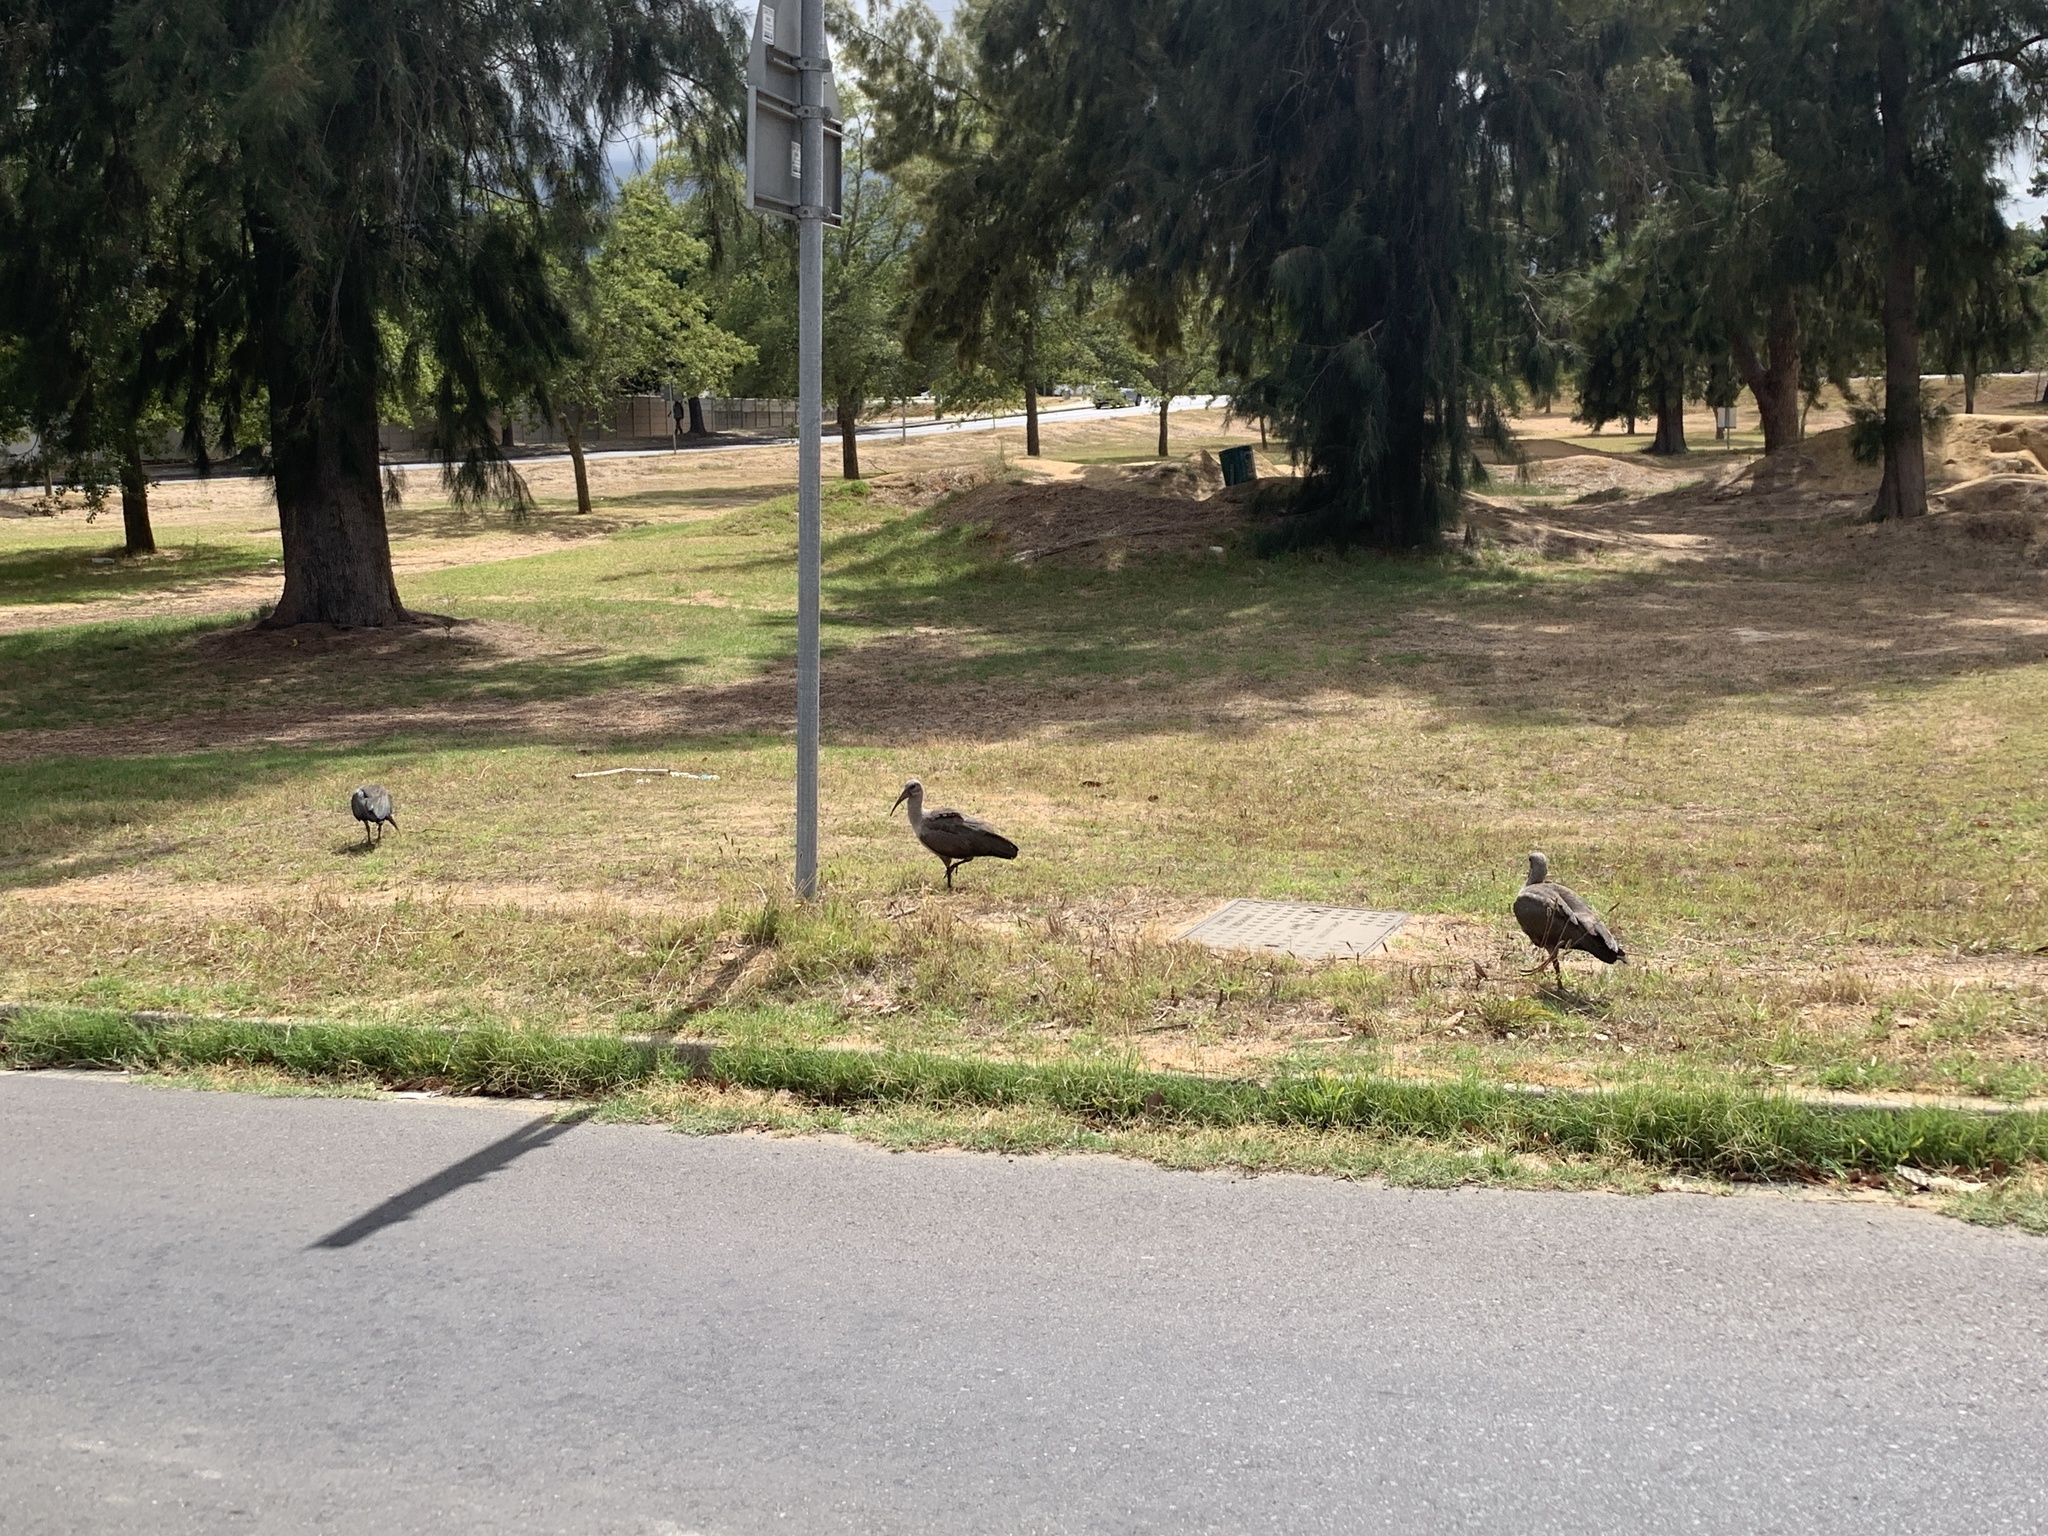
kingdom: Animalia
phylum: Chordata
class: Aves
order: Pelecaniformes
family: Threskiornithidae
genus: Bostrychia
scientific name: Bostrychia hagedash
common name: Hadada ibis
